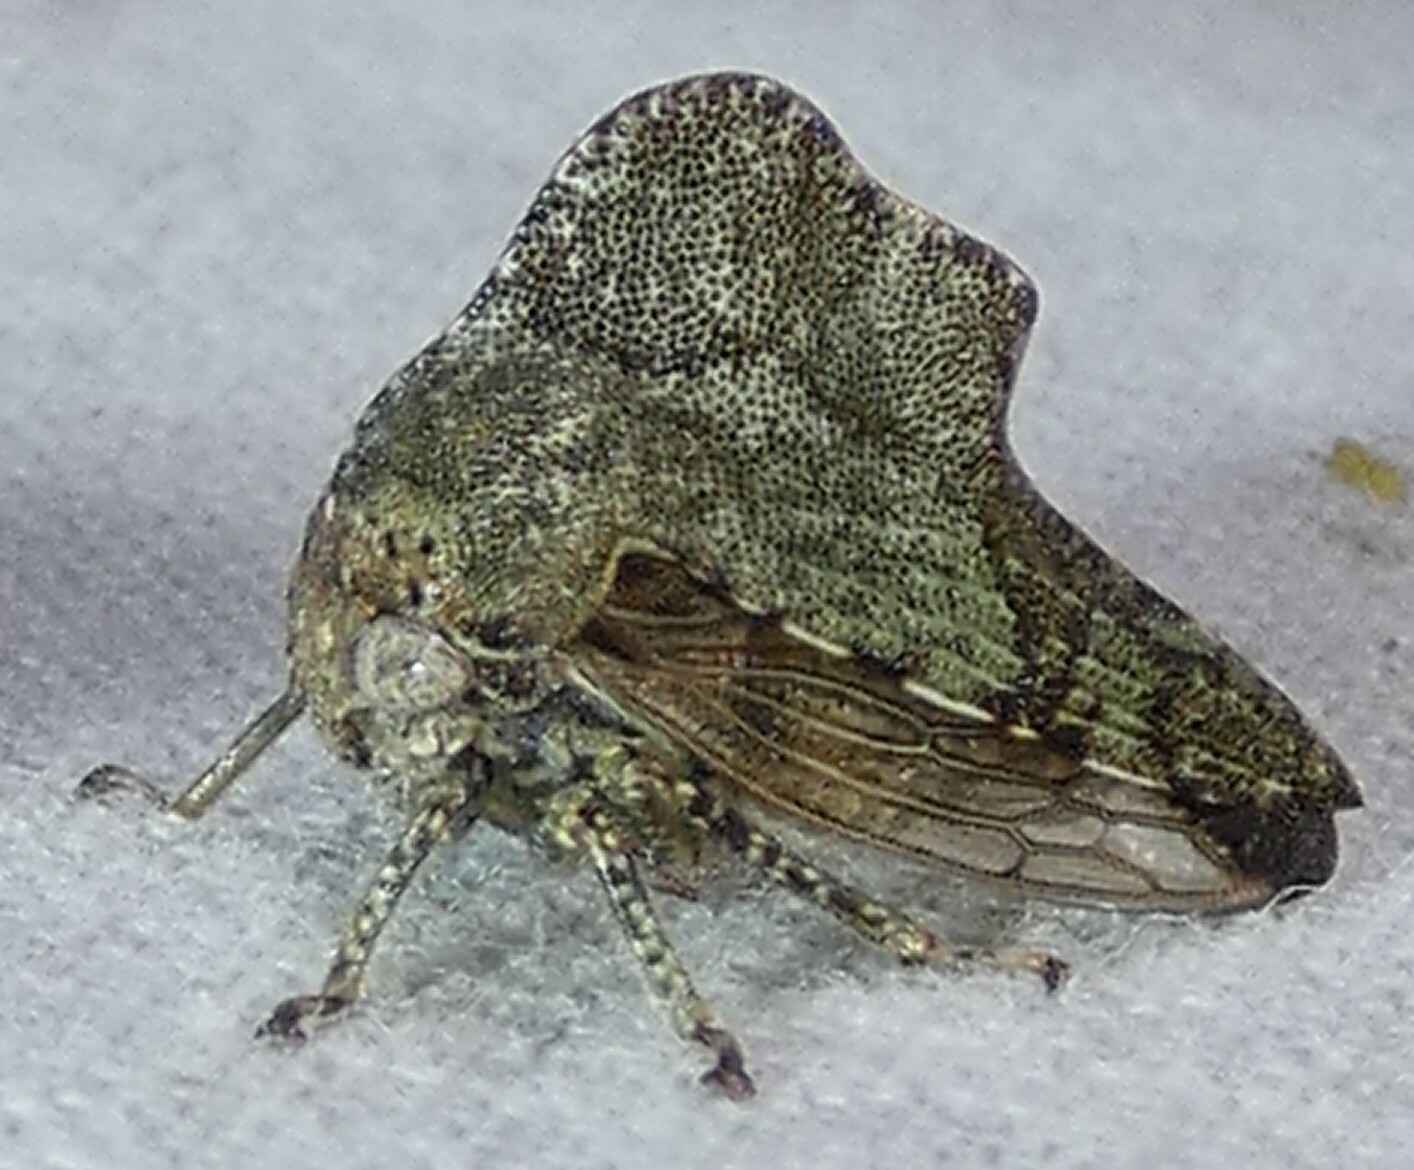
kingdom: Animalia
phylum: Arthropoda
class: Insecta
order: Hemiptera
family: Membracidae
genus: Heliria
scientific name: Heliria cornutula
